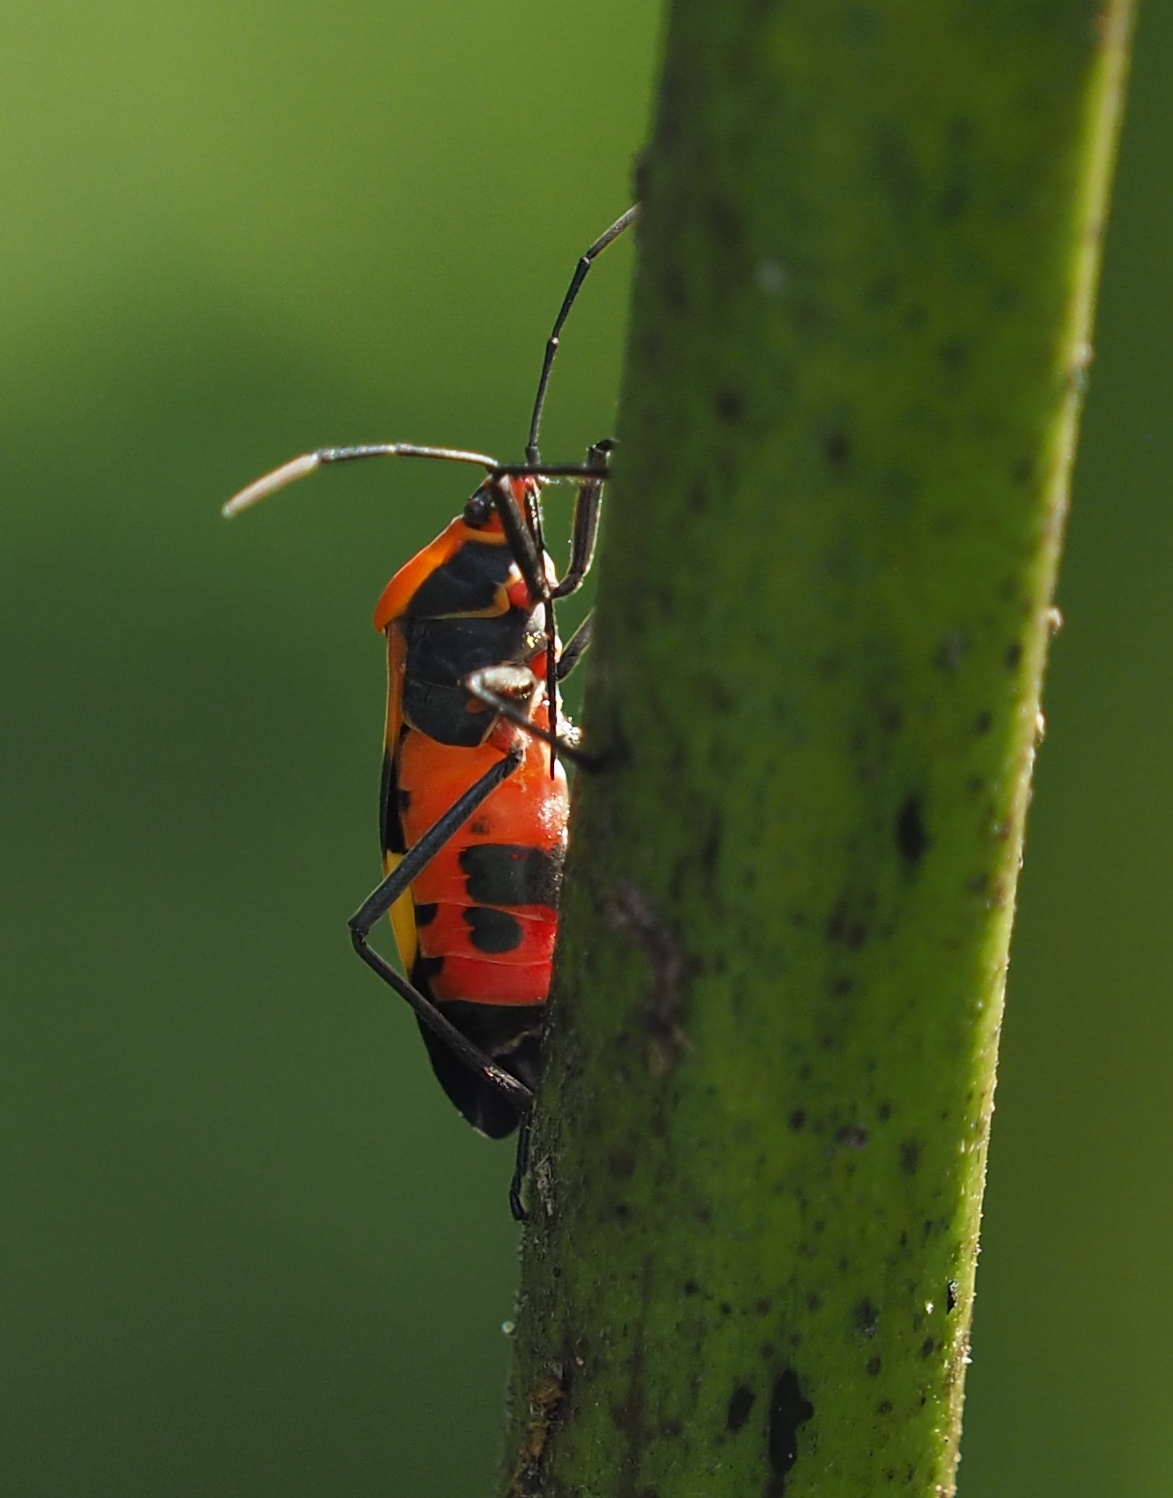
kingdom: Animalia
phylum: Arthropoda
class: Insecta
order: Hemiptera
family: Lygaeidae
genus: Oncopeltus
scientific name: Oncopeltus fasciatus
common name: Large milkweed bug
